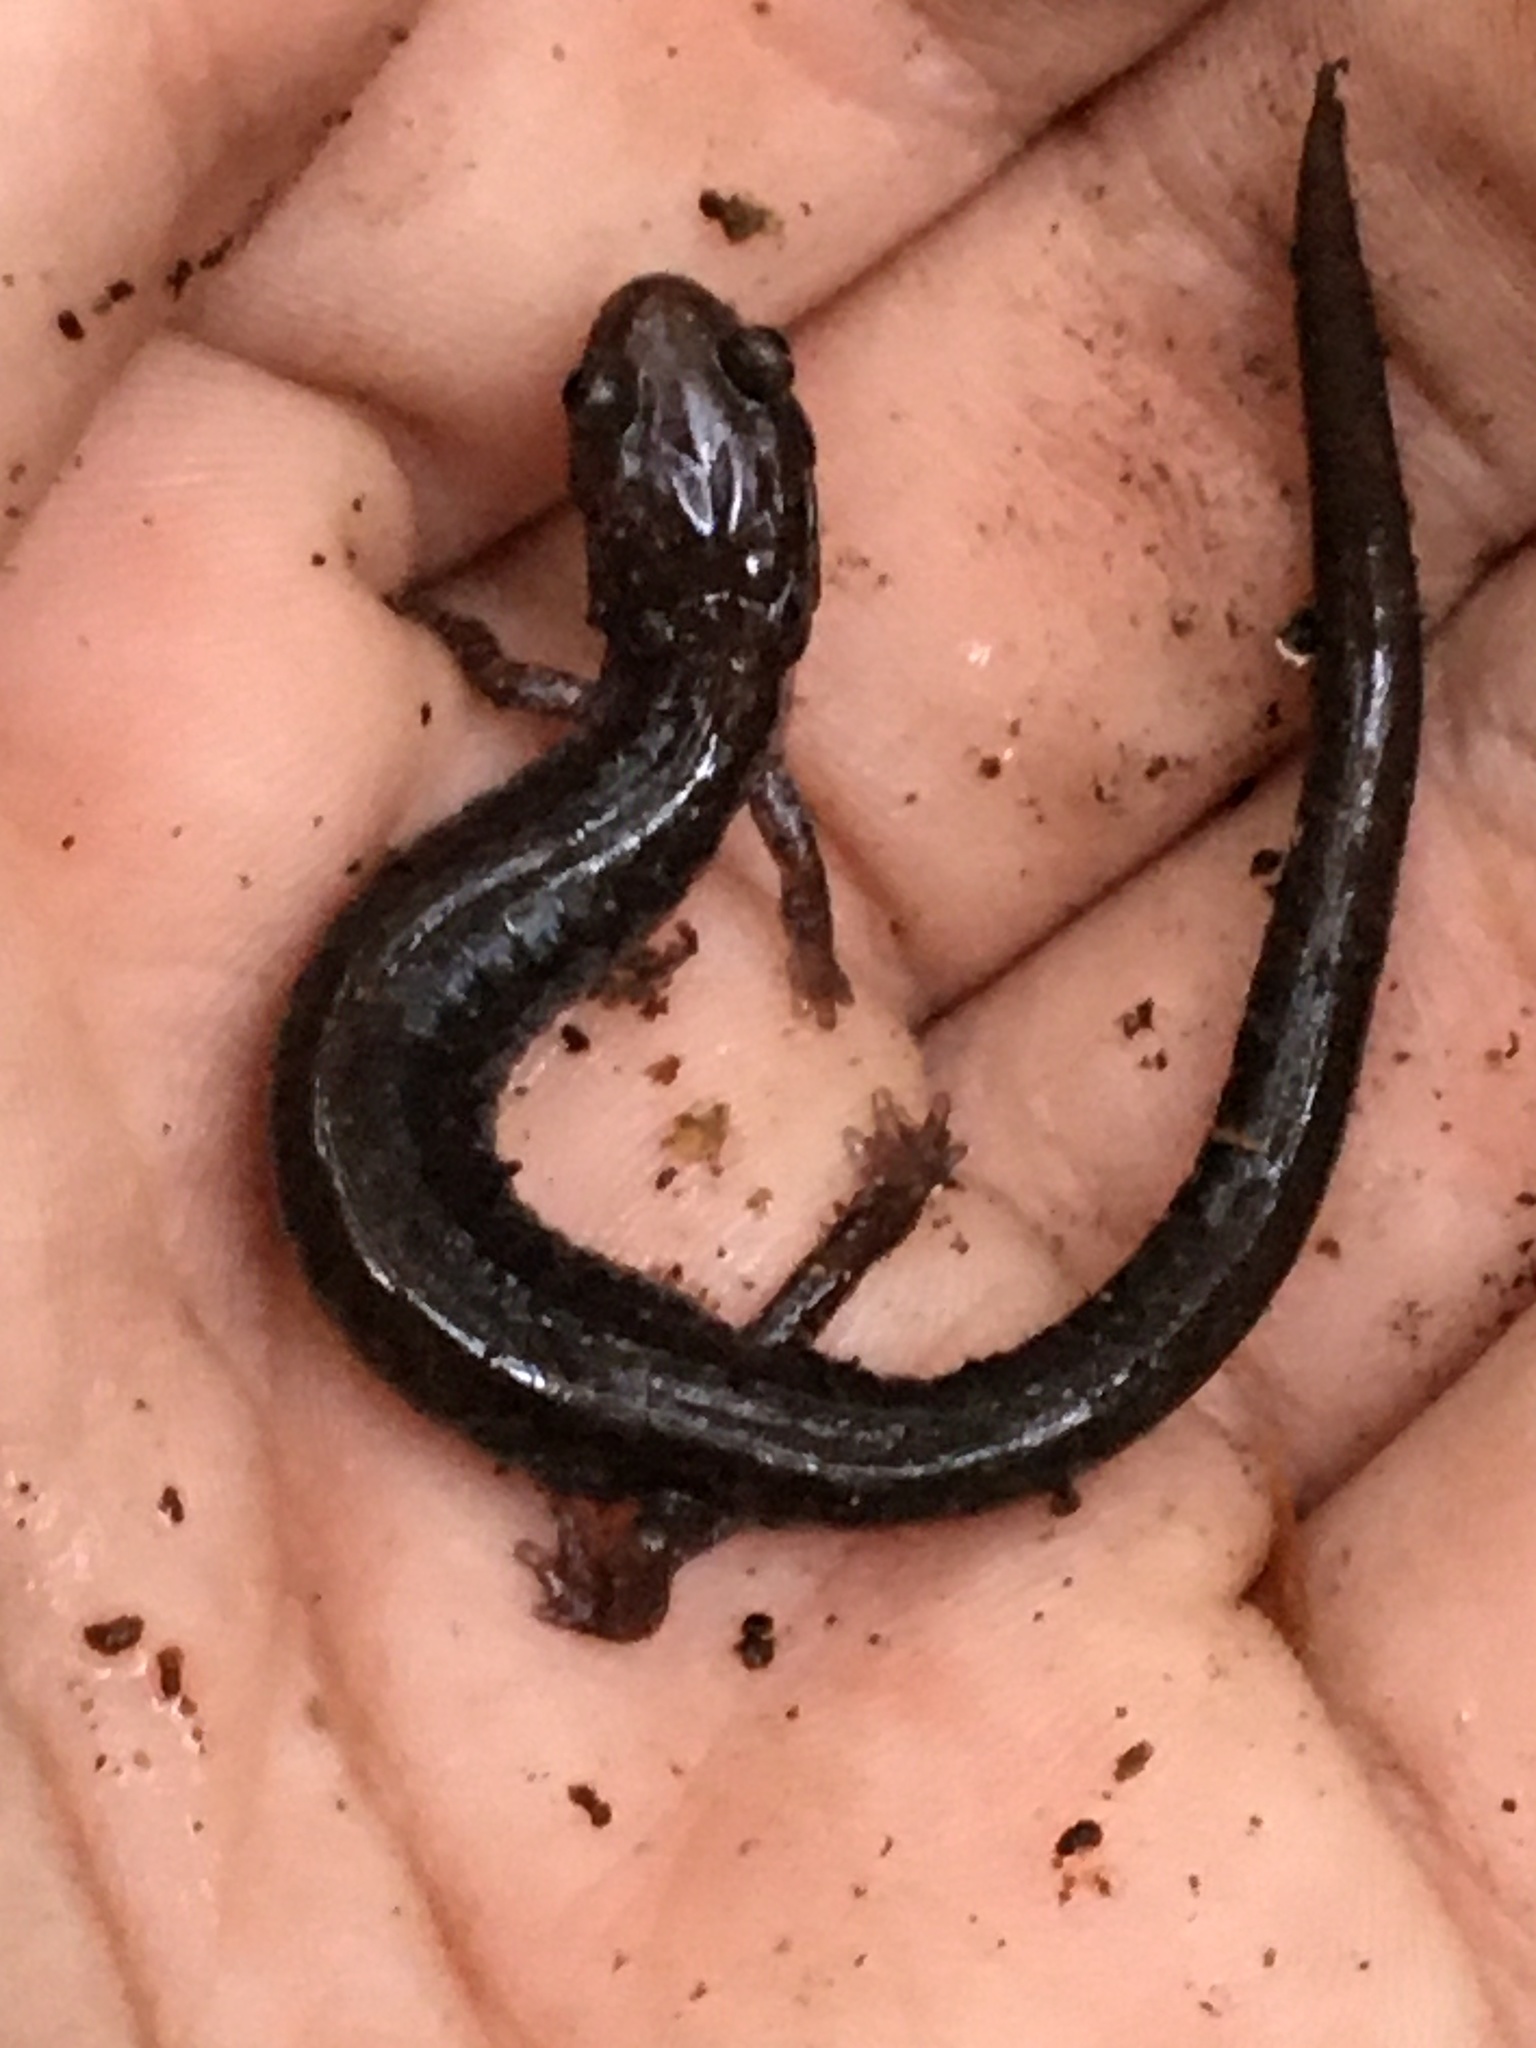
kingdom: Animalia
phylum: Chordata
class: Amphibia
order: Caudata
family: Plethodontidae
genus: Plethodon
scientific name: Plethodon cinereus
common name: Redback salamander
